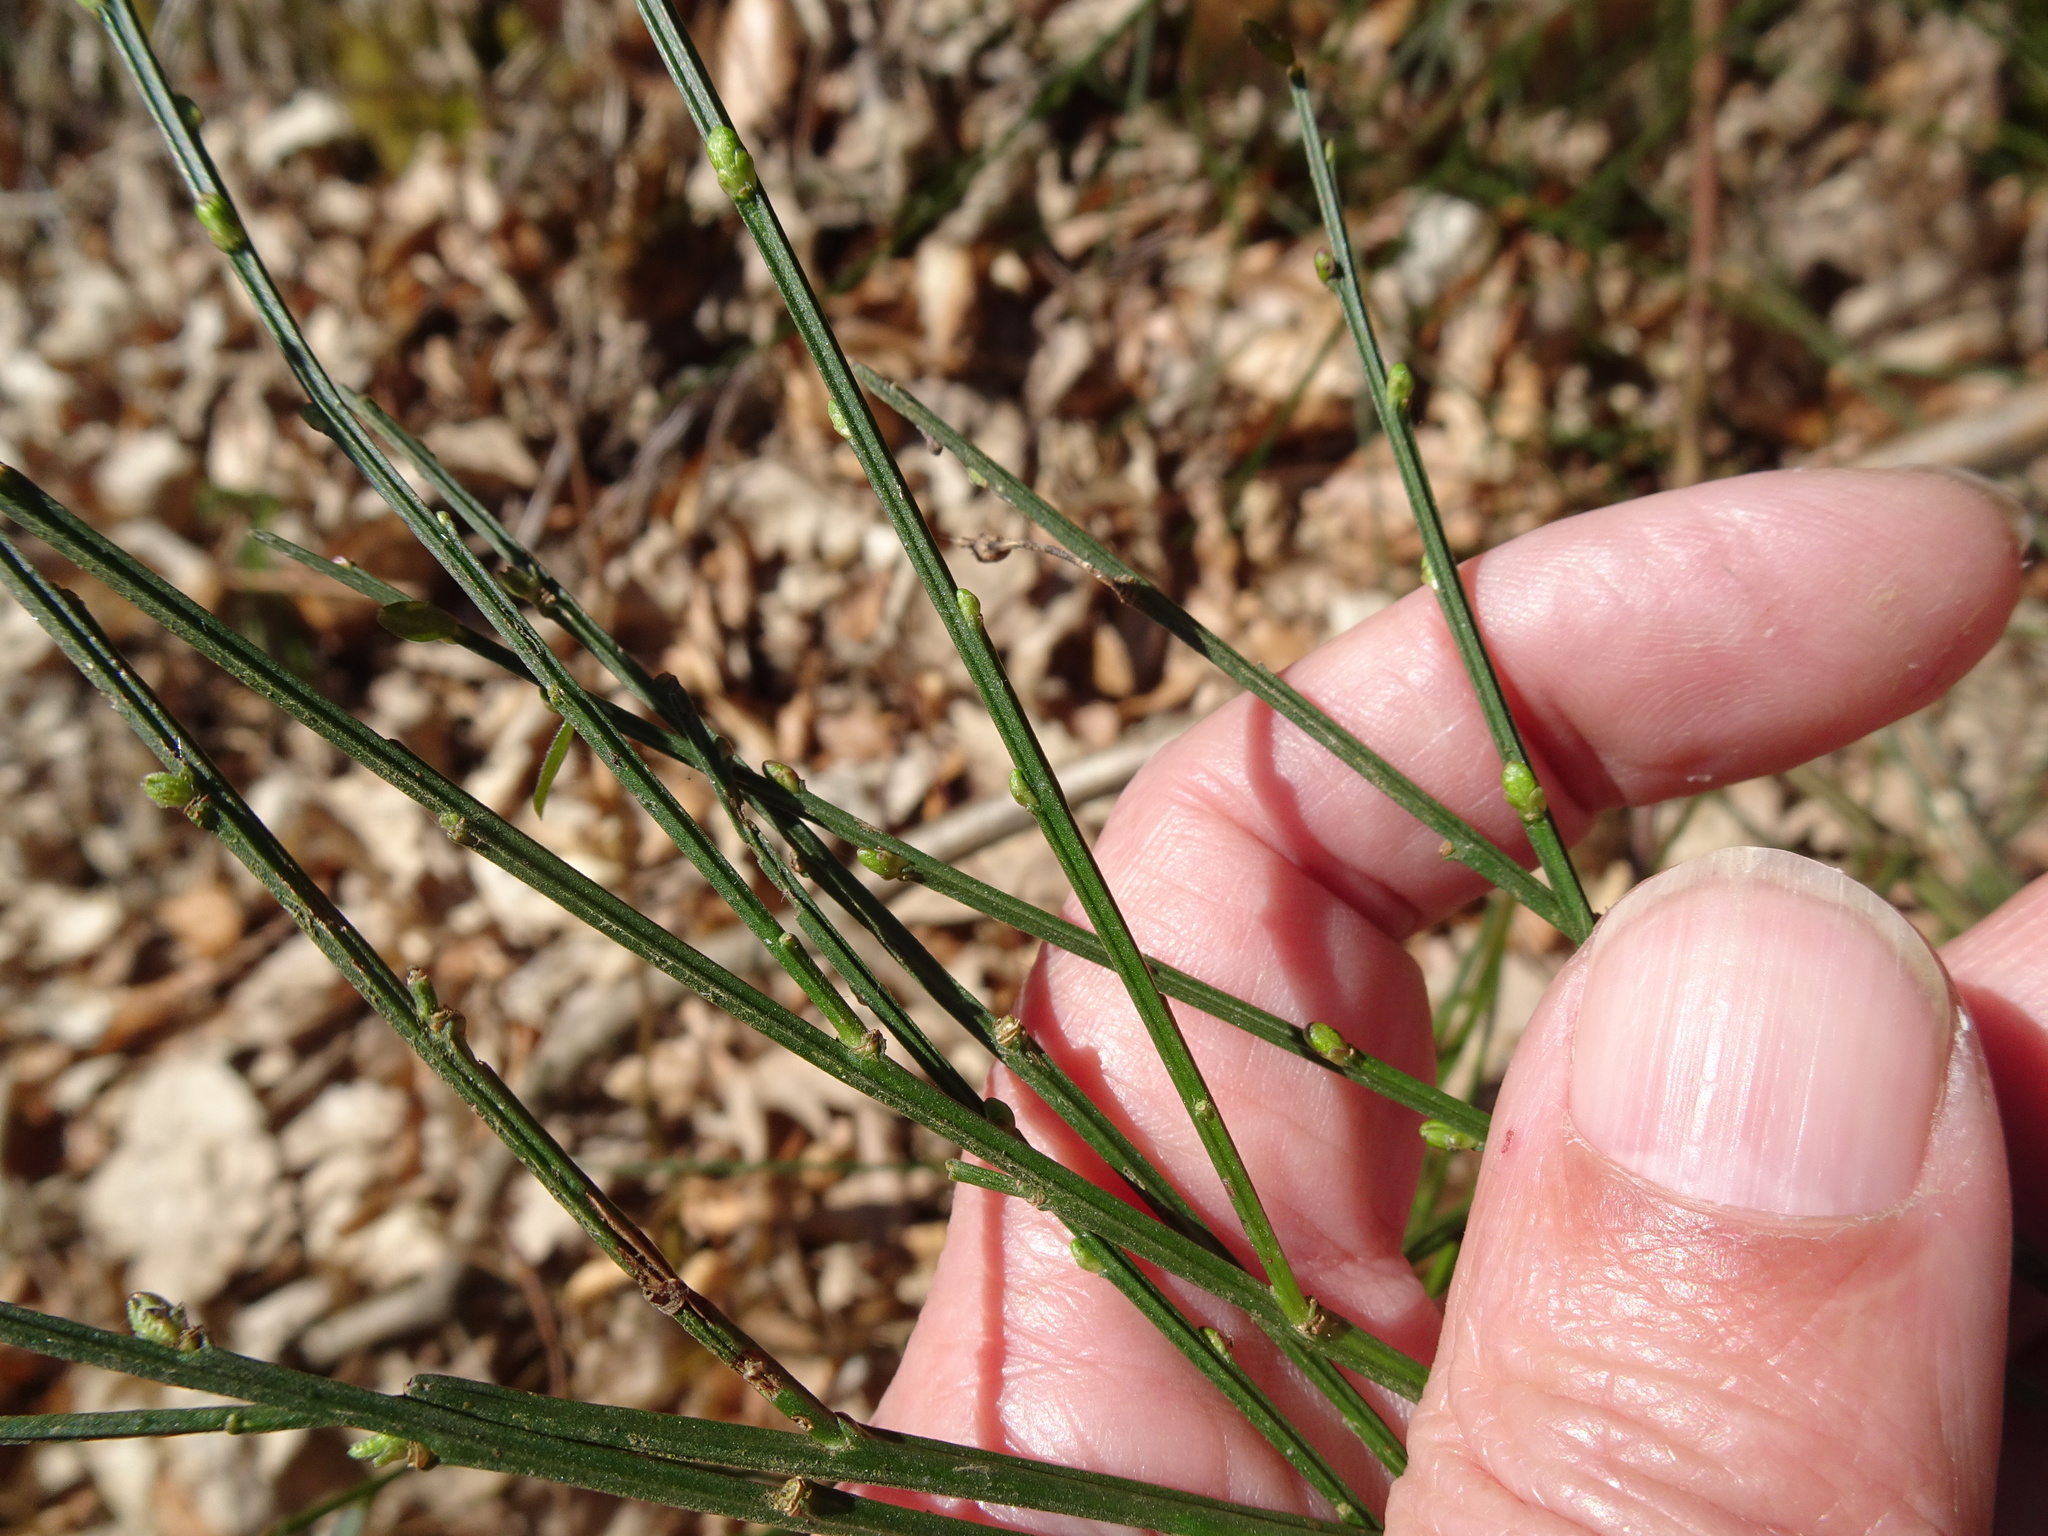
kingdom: Plantae
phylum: Tracheophyta
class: Magnoliopsida
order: Fabales
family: Fabaceae
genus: Cytisus
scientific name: Cytisus scoparius
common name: Scotch broom
